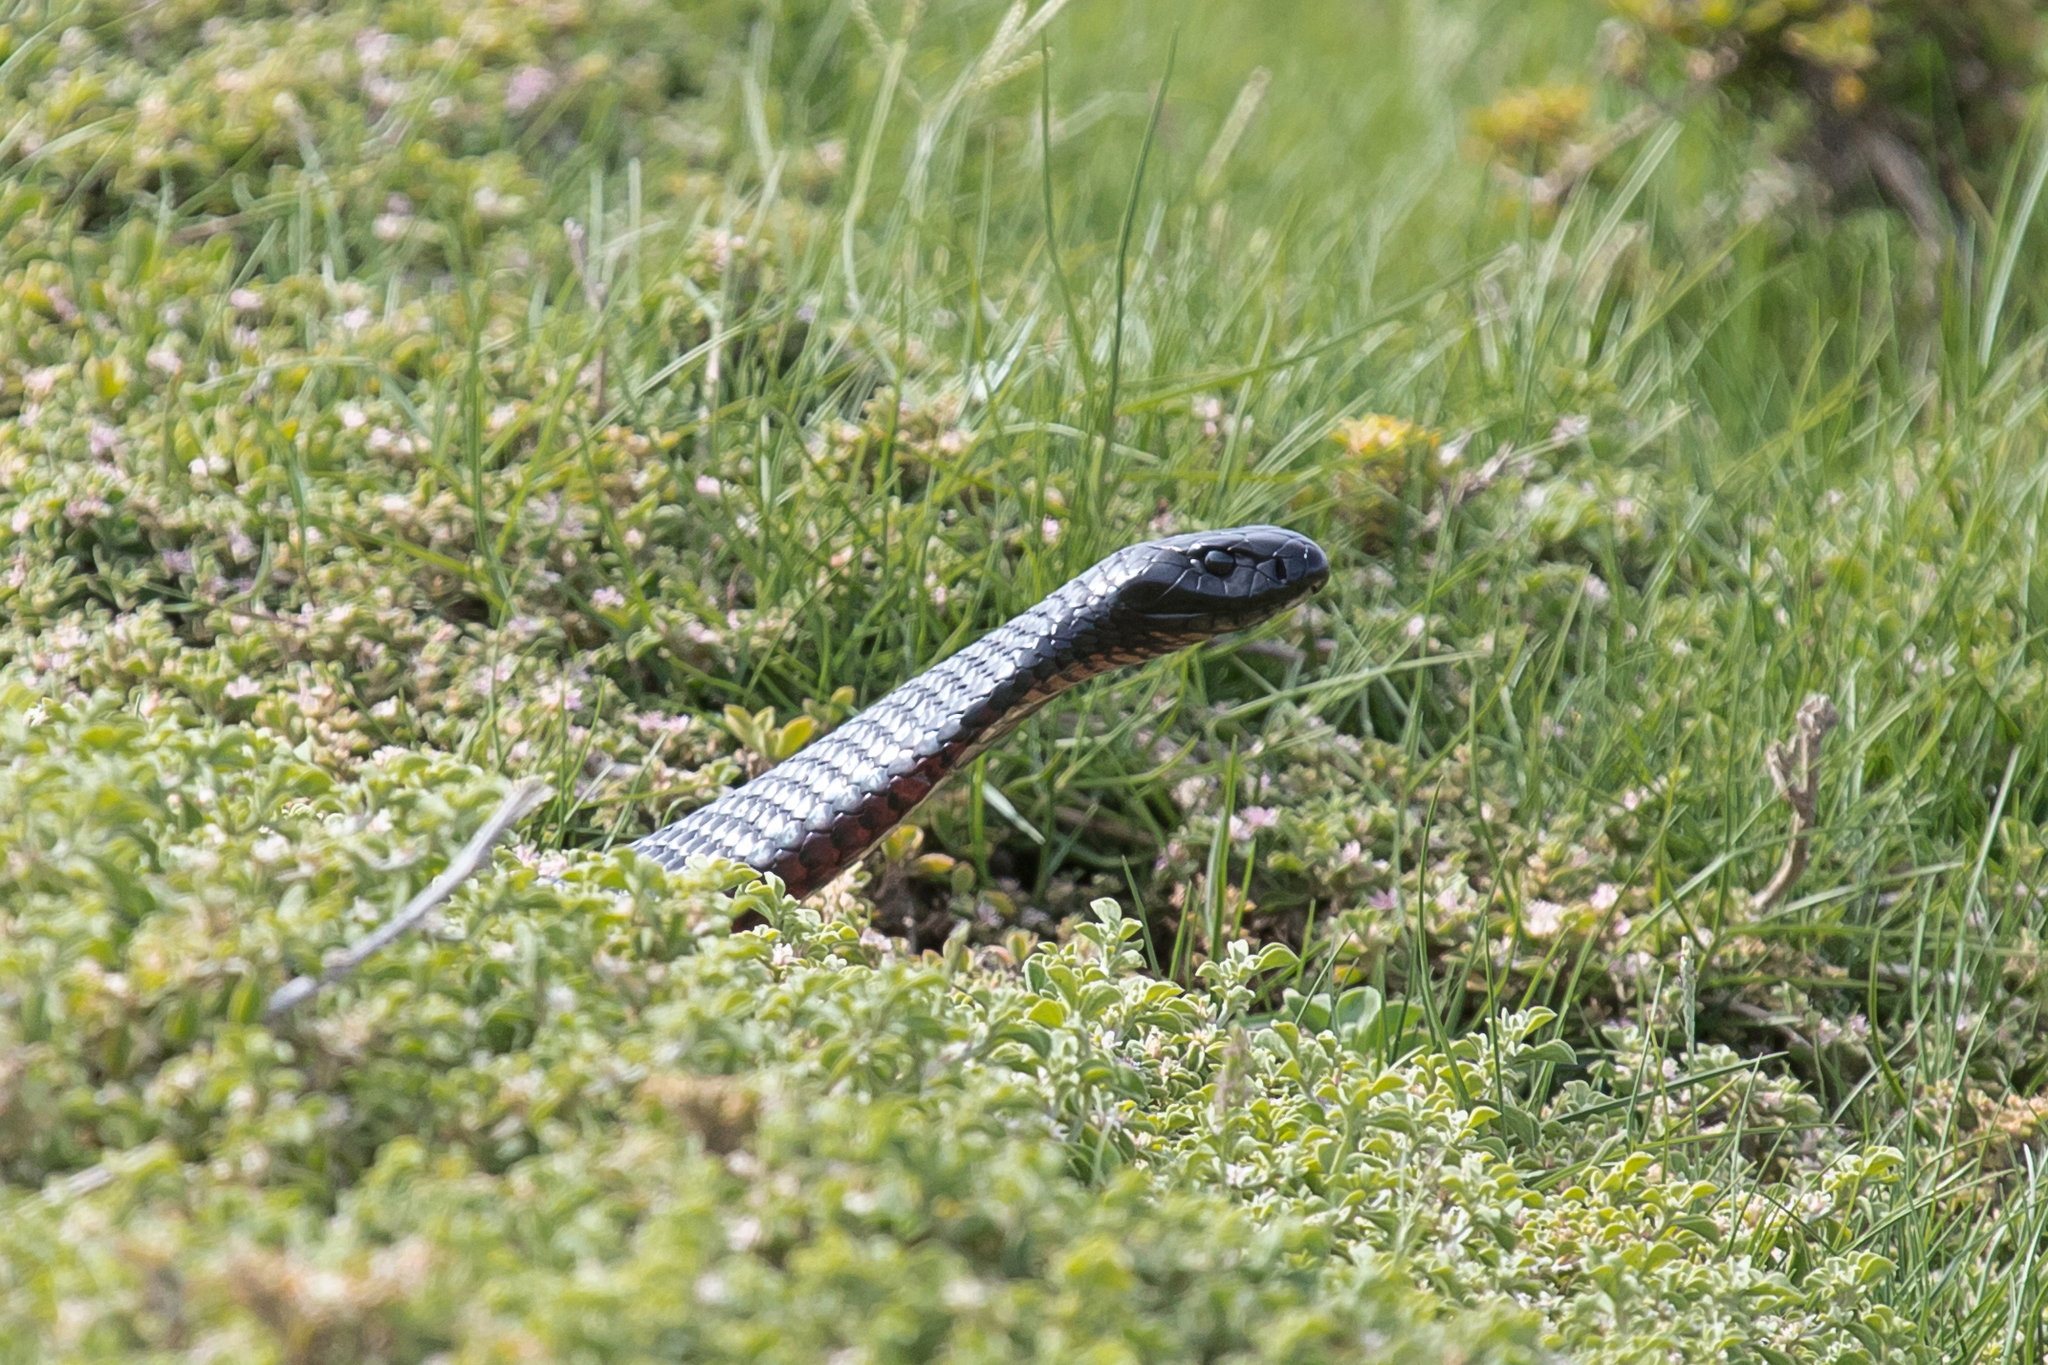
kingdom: Animalia
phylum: Chordata
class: Squamata
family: Elapidae
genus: Pseudechis
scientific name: Pseudechis porphyriacus
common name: Australian black snake
